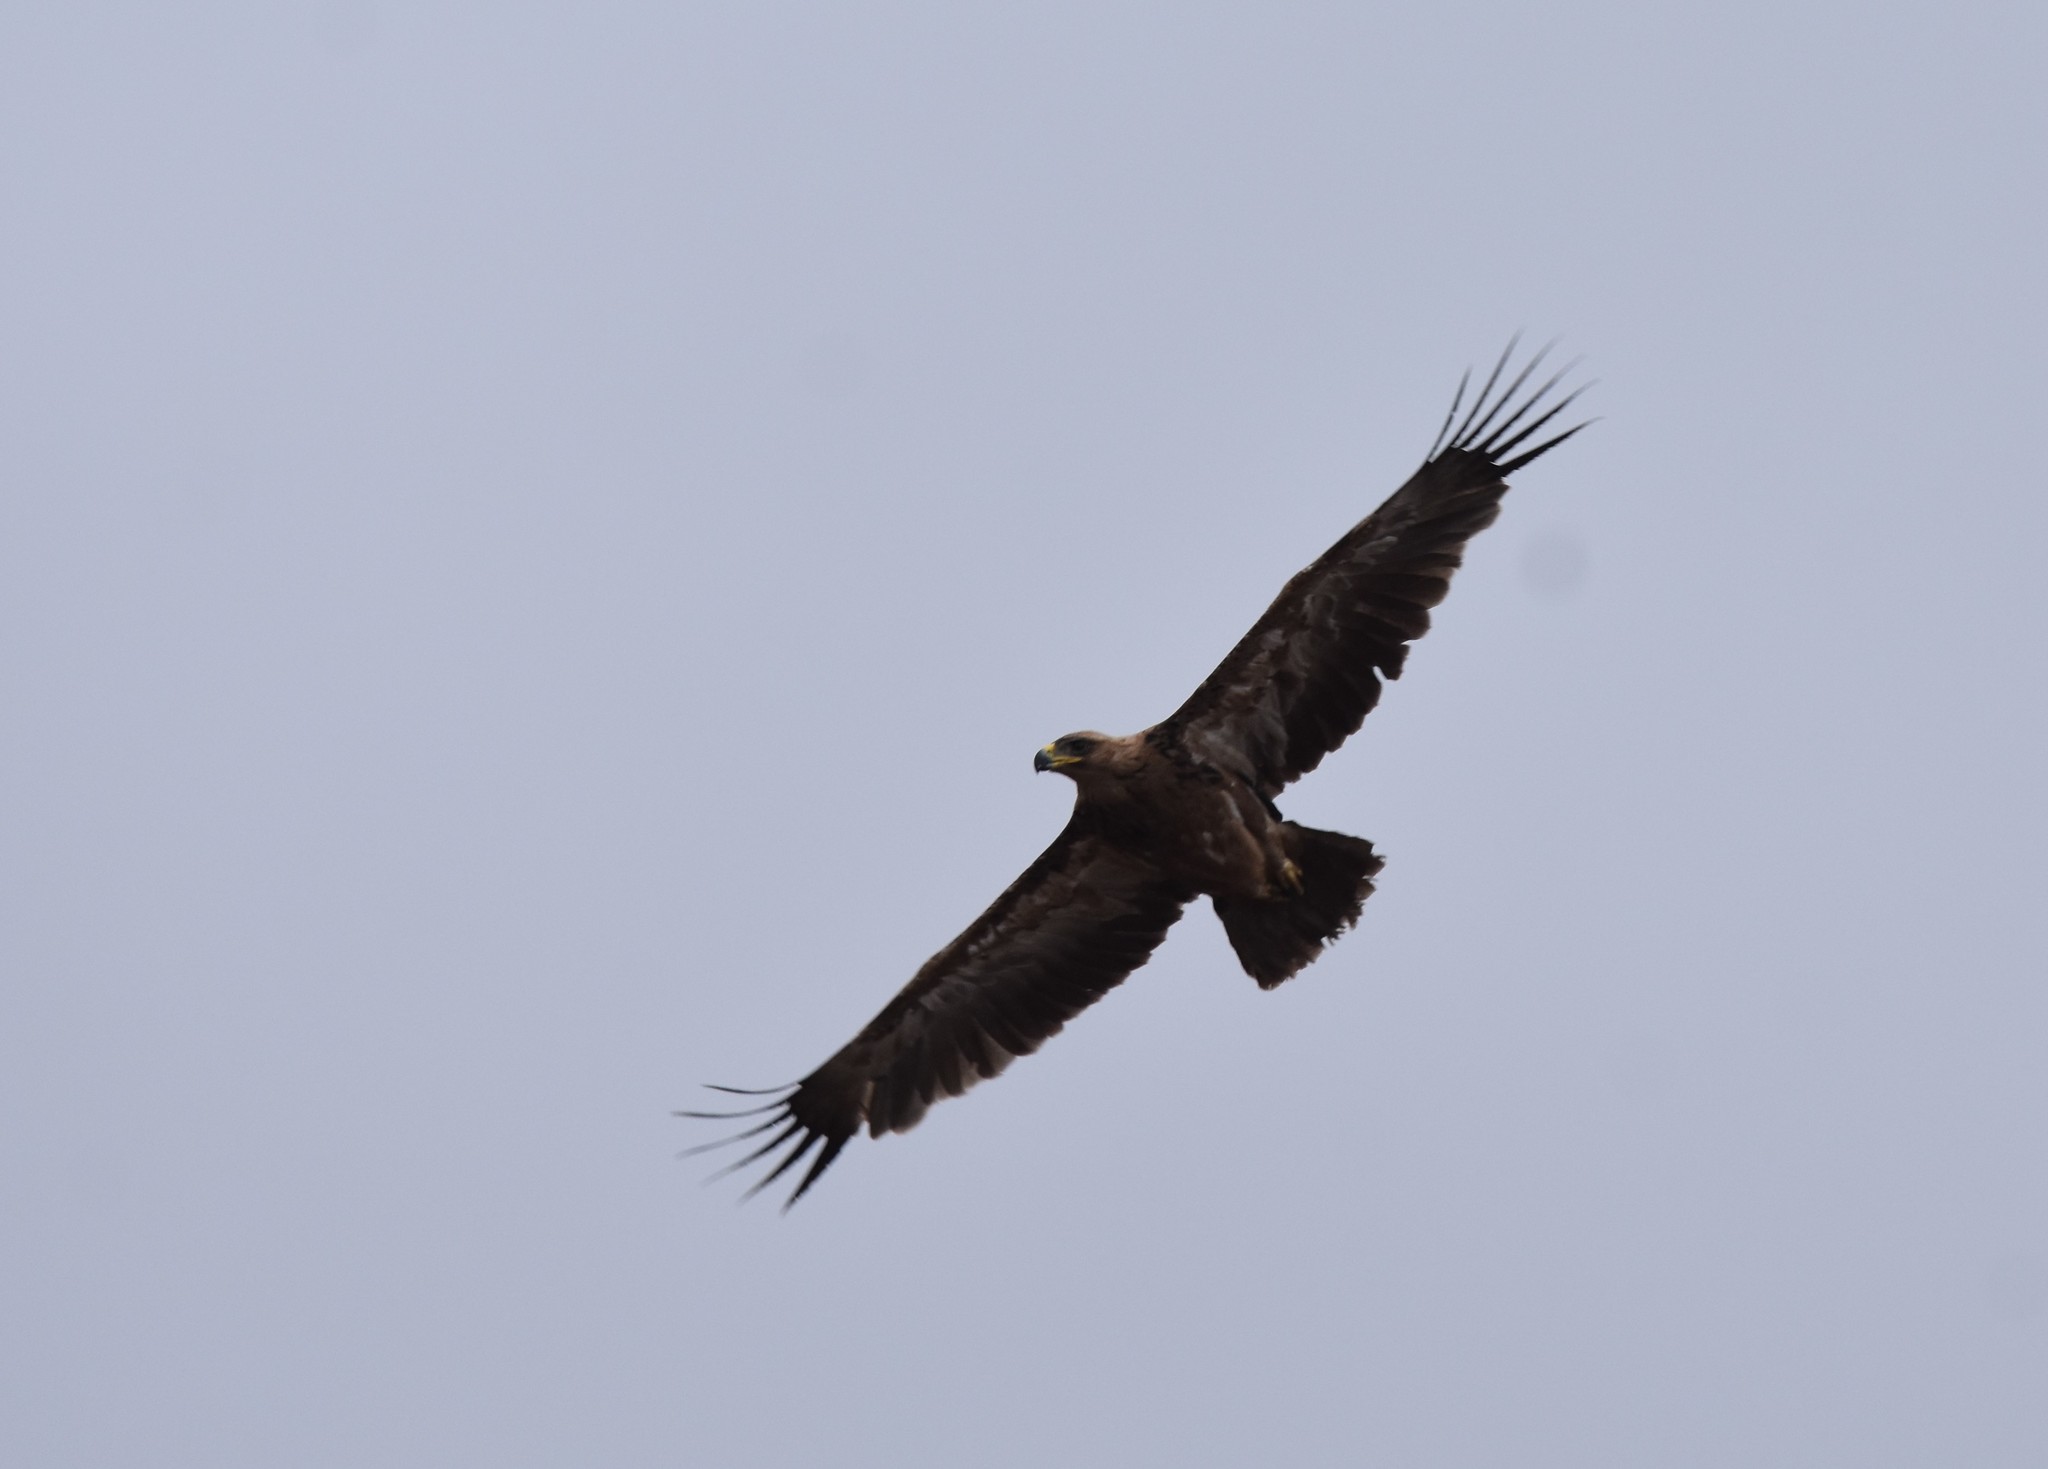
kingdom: Animalia
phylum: Chordata
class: Aves
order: Accipitriformes
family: Accipitridae
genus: Aquila
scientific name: Aquila rapax
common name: Tawny eagle
